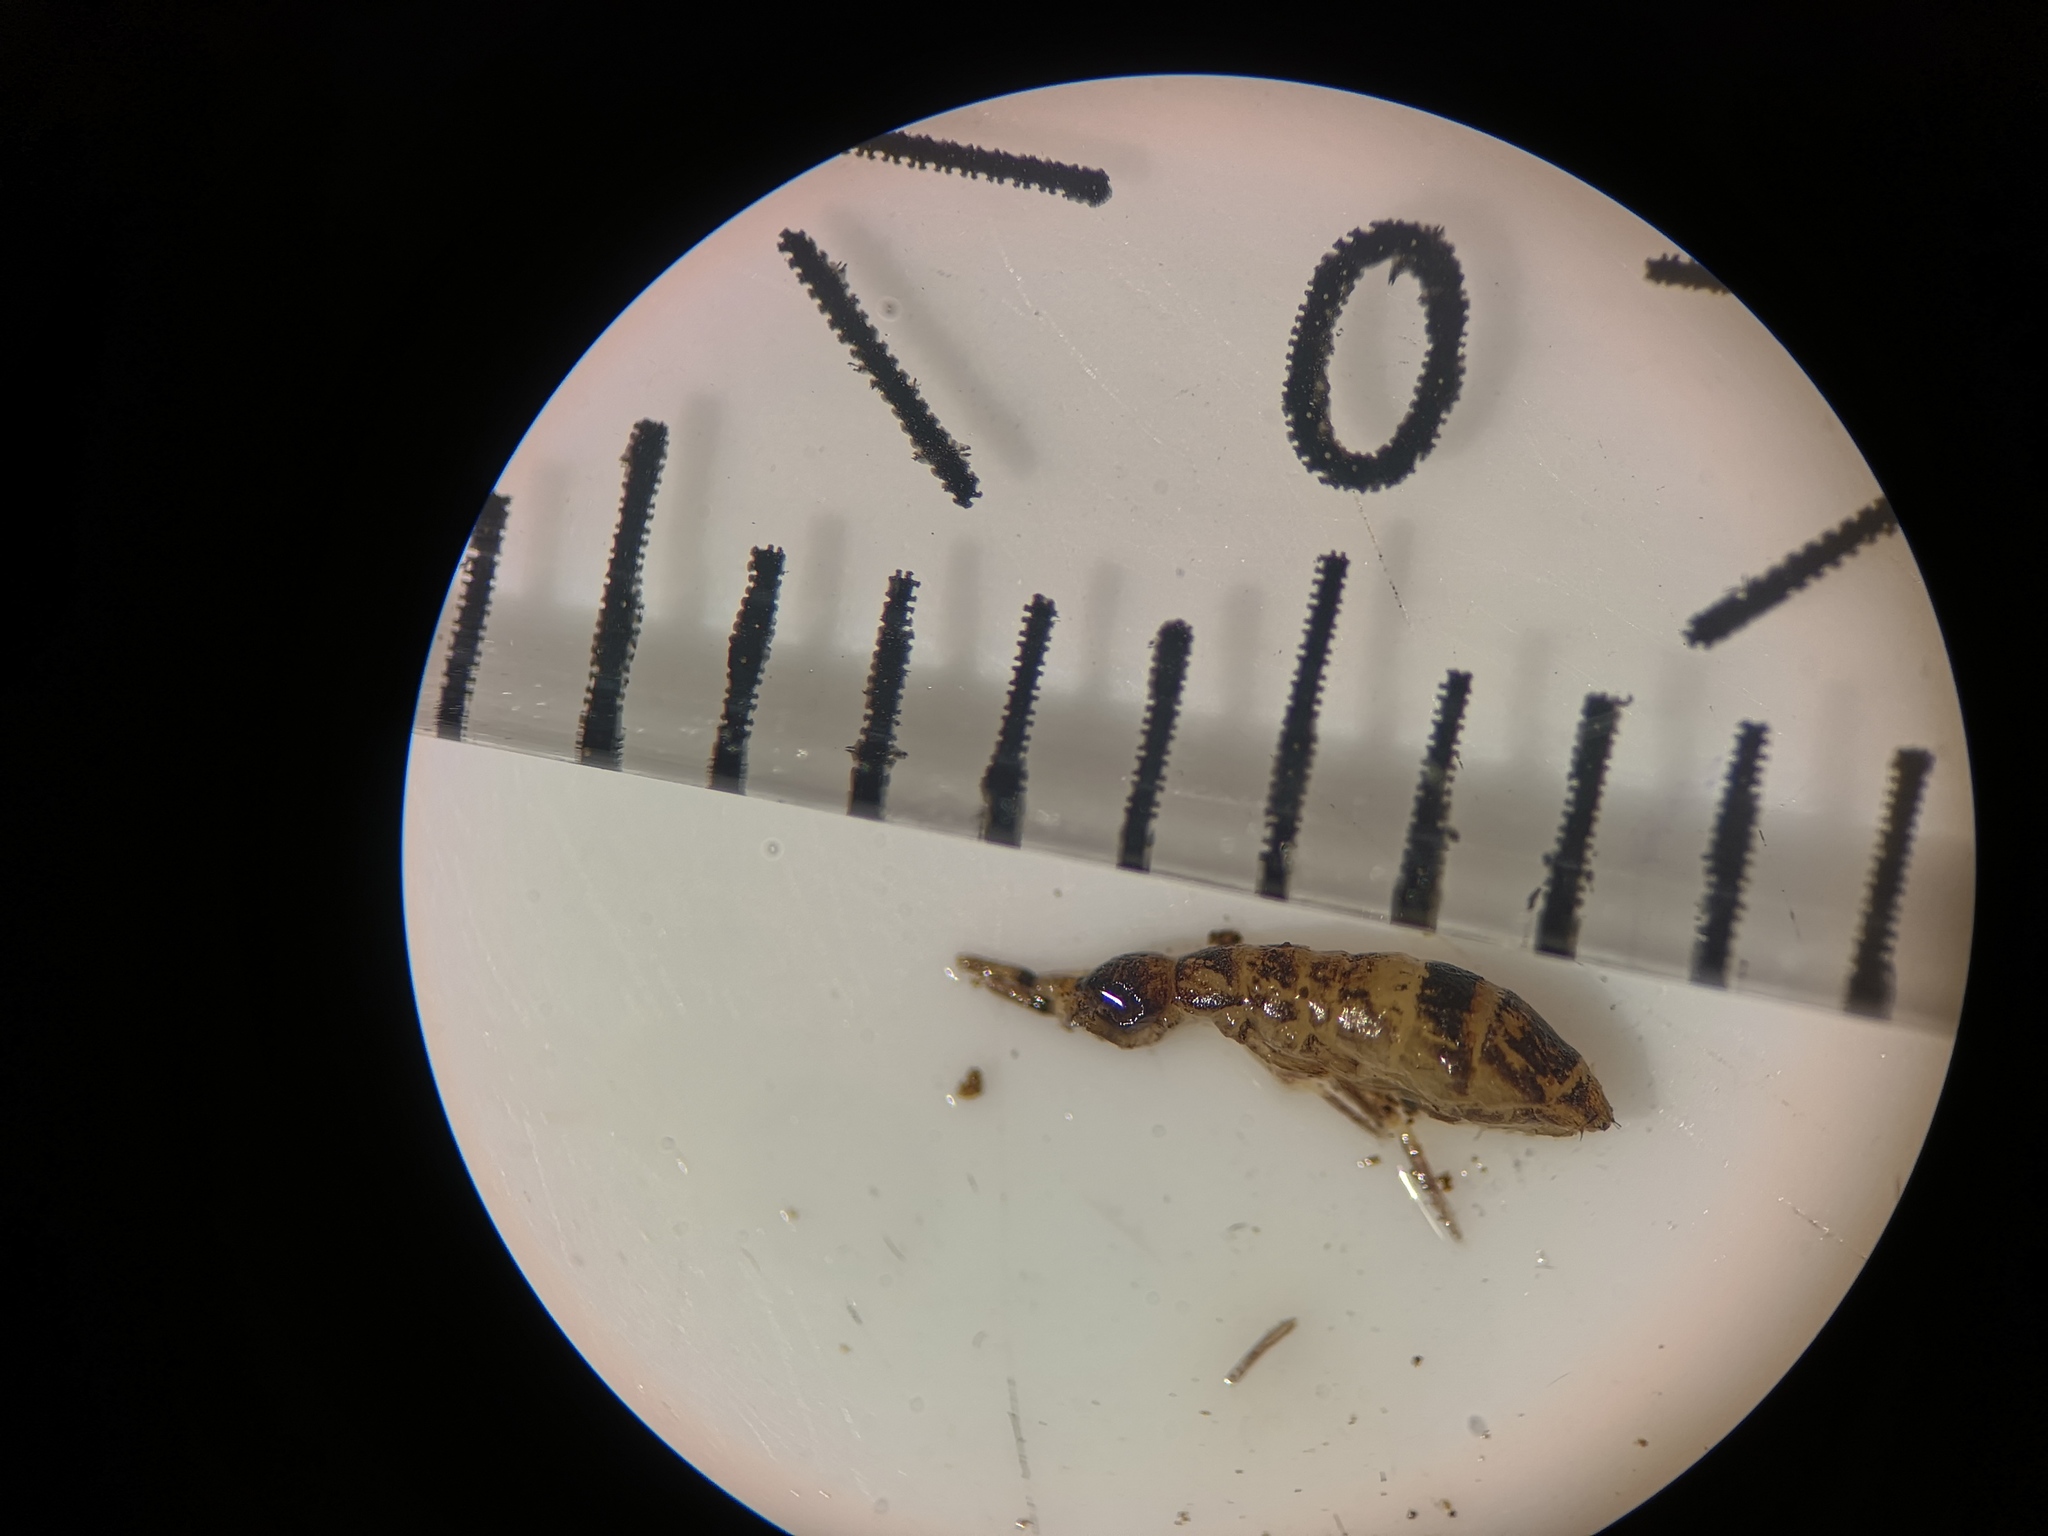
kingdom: Animalia
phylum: Arthropoda
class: Collembola
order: Entomobryomorpha
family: Orchesellidae
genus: Orchesella
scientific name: Orchesella cincta
